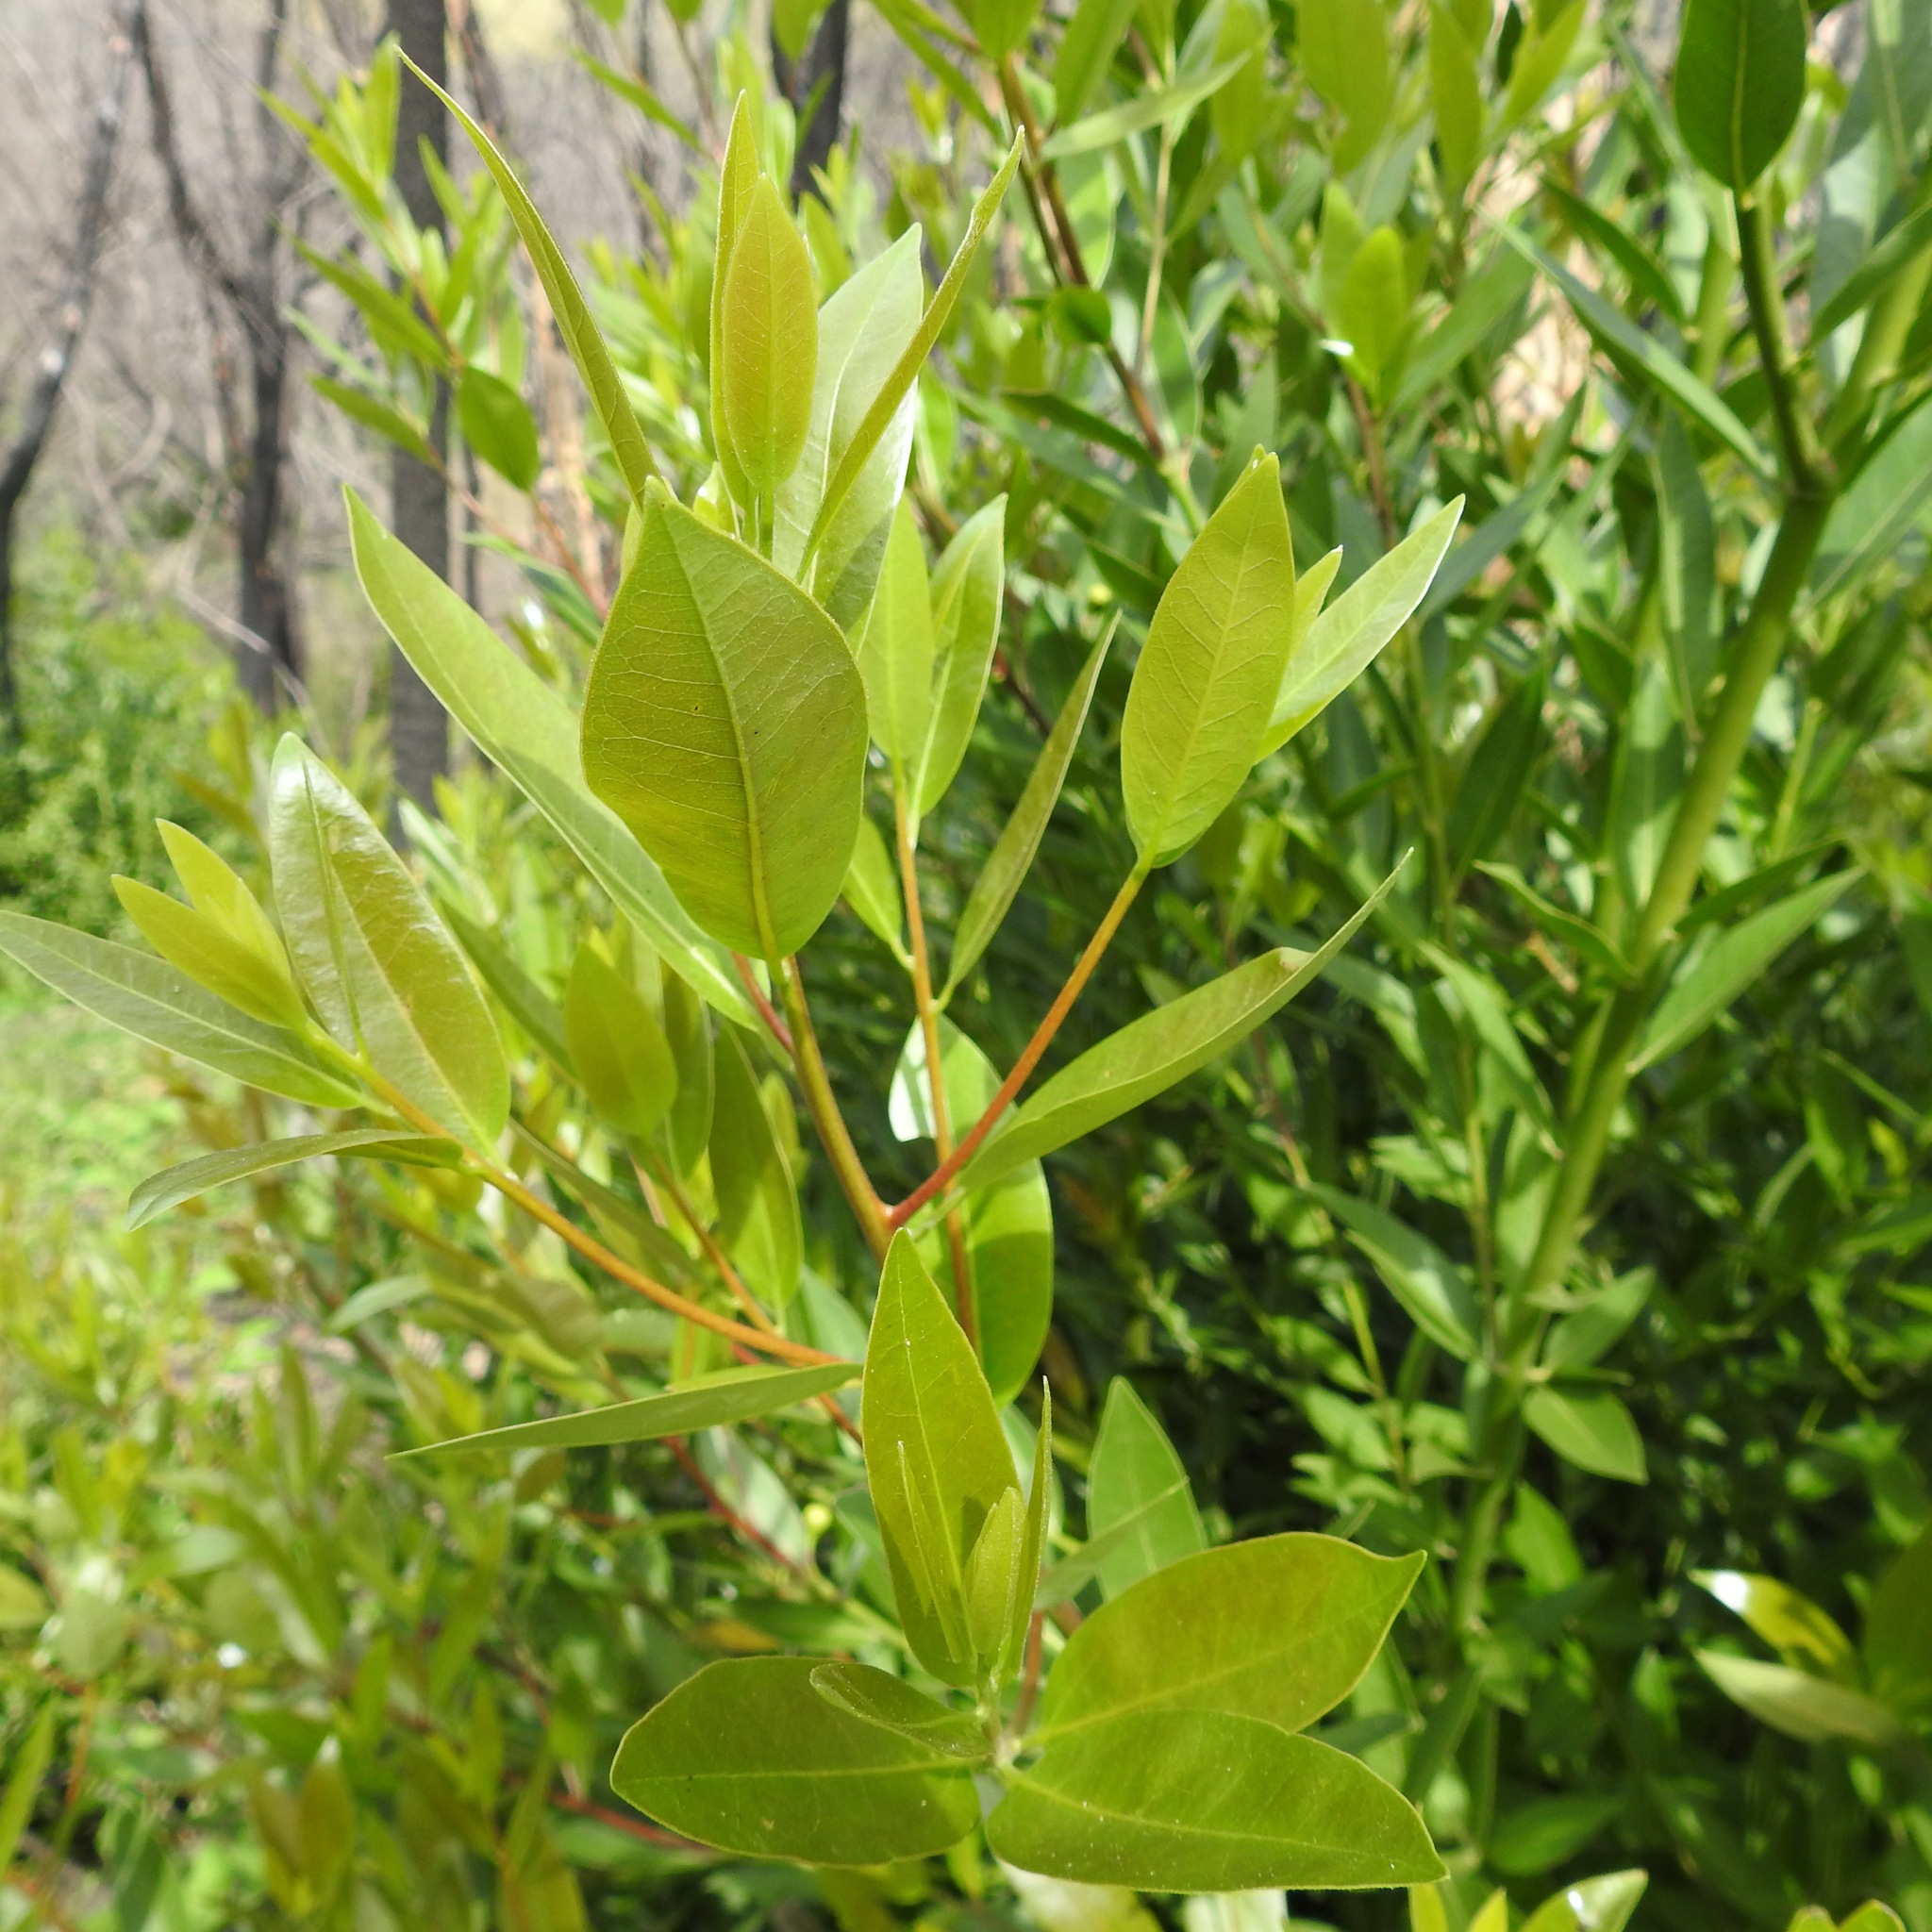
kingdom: Plantae
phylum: Tracheophyta
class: Magnoliopsida
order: Laurales
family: Lauraceae
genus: Umbellularia
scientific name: Umbellularia californica
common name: California bay
